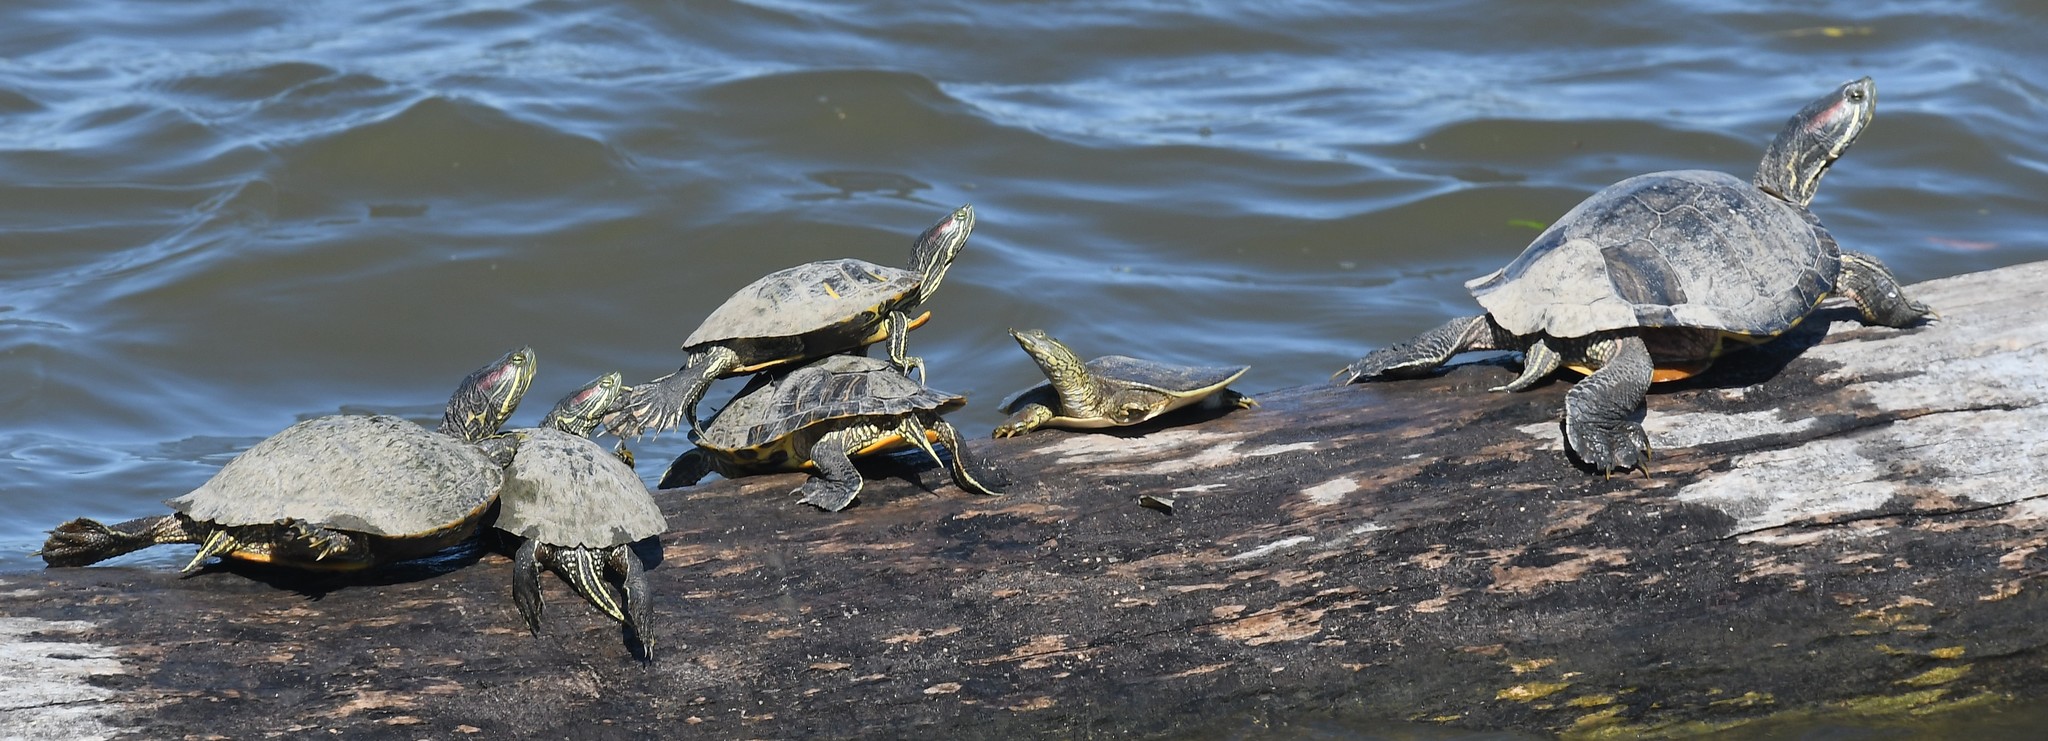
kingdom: Animalia
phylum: Chordata
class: Testudines
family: Emydidae
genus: Trachemys
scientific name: Trachemys scripta
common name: Slider
